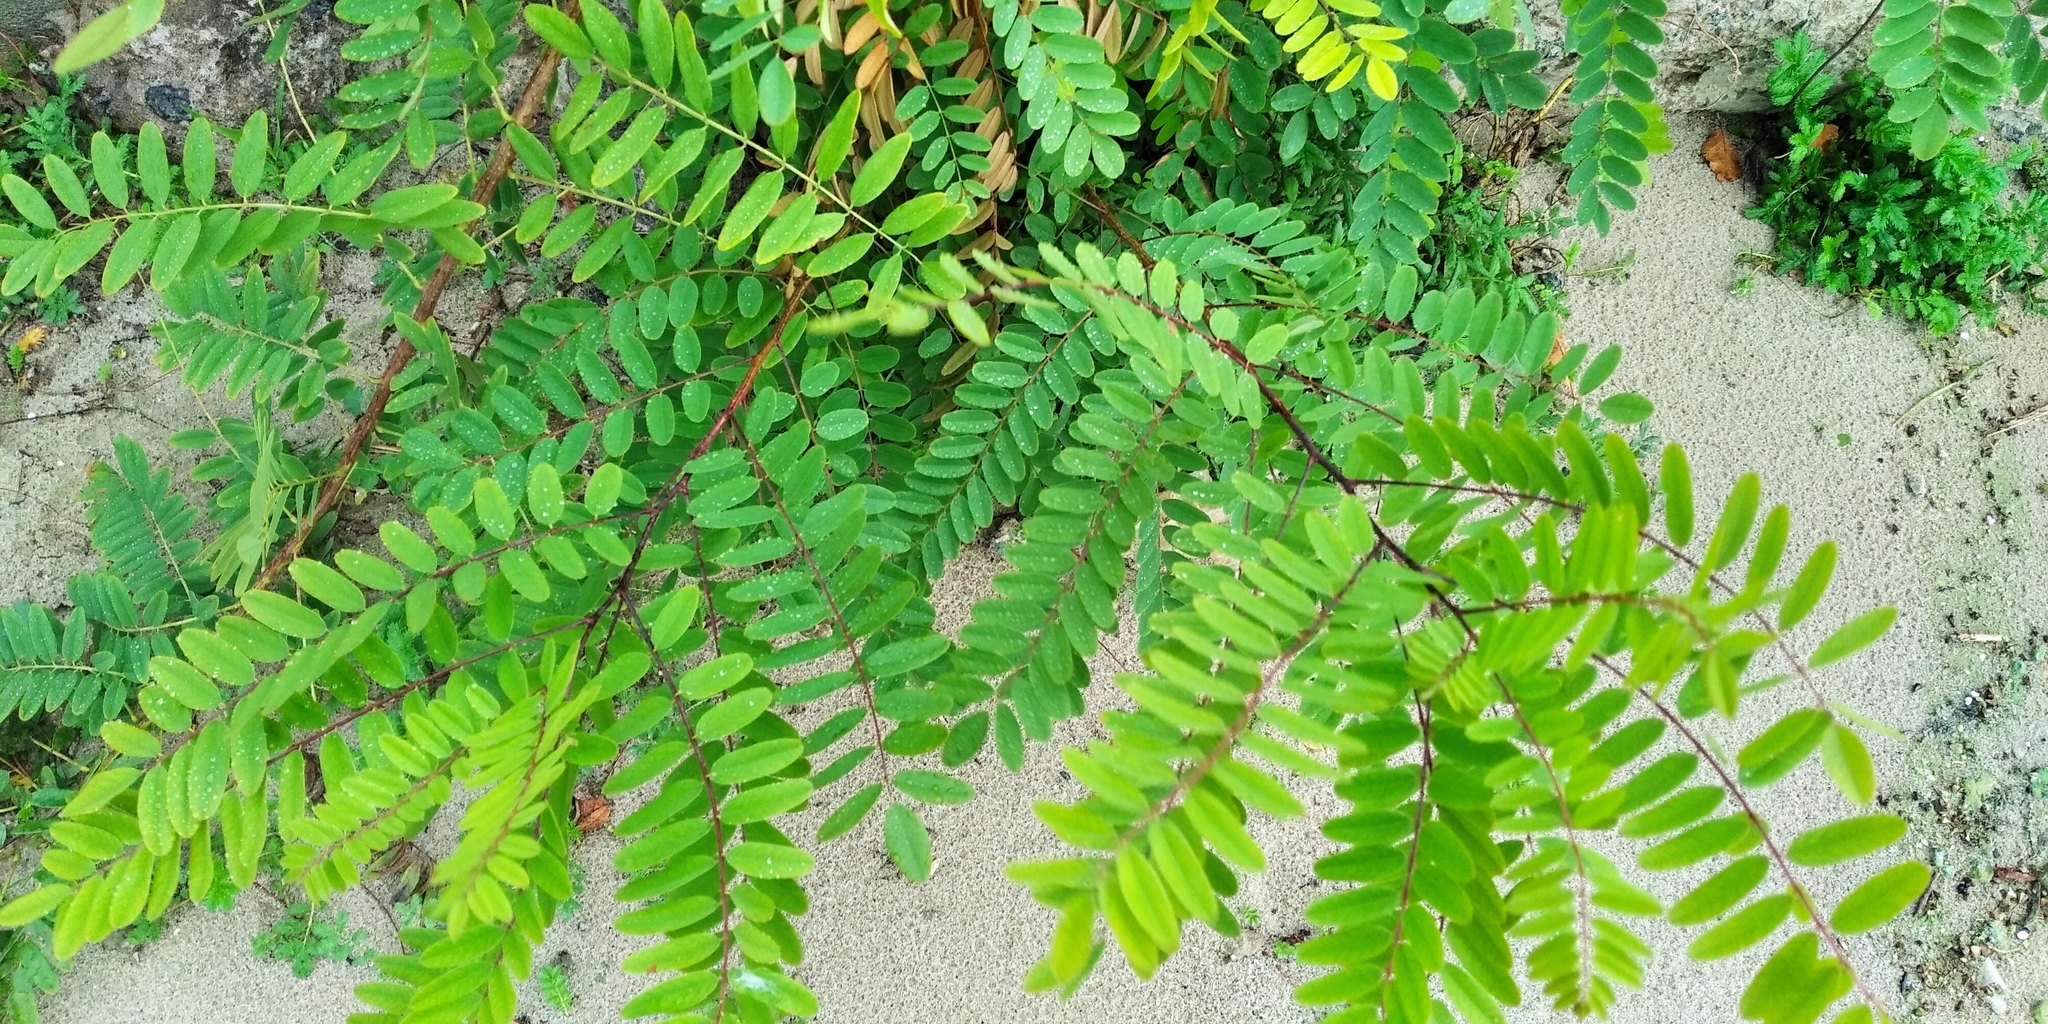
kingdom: Plantae
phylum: Tracheophyta
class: Magnoliopsida
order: Fabales
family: Fabaceae
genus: Amorpha
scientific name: Amorpha fruticosa
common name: False indigo
